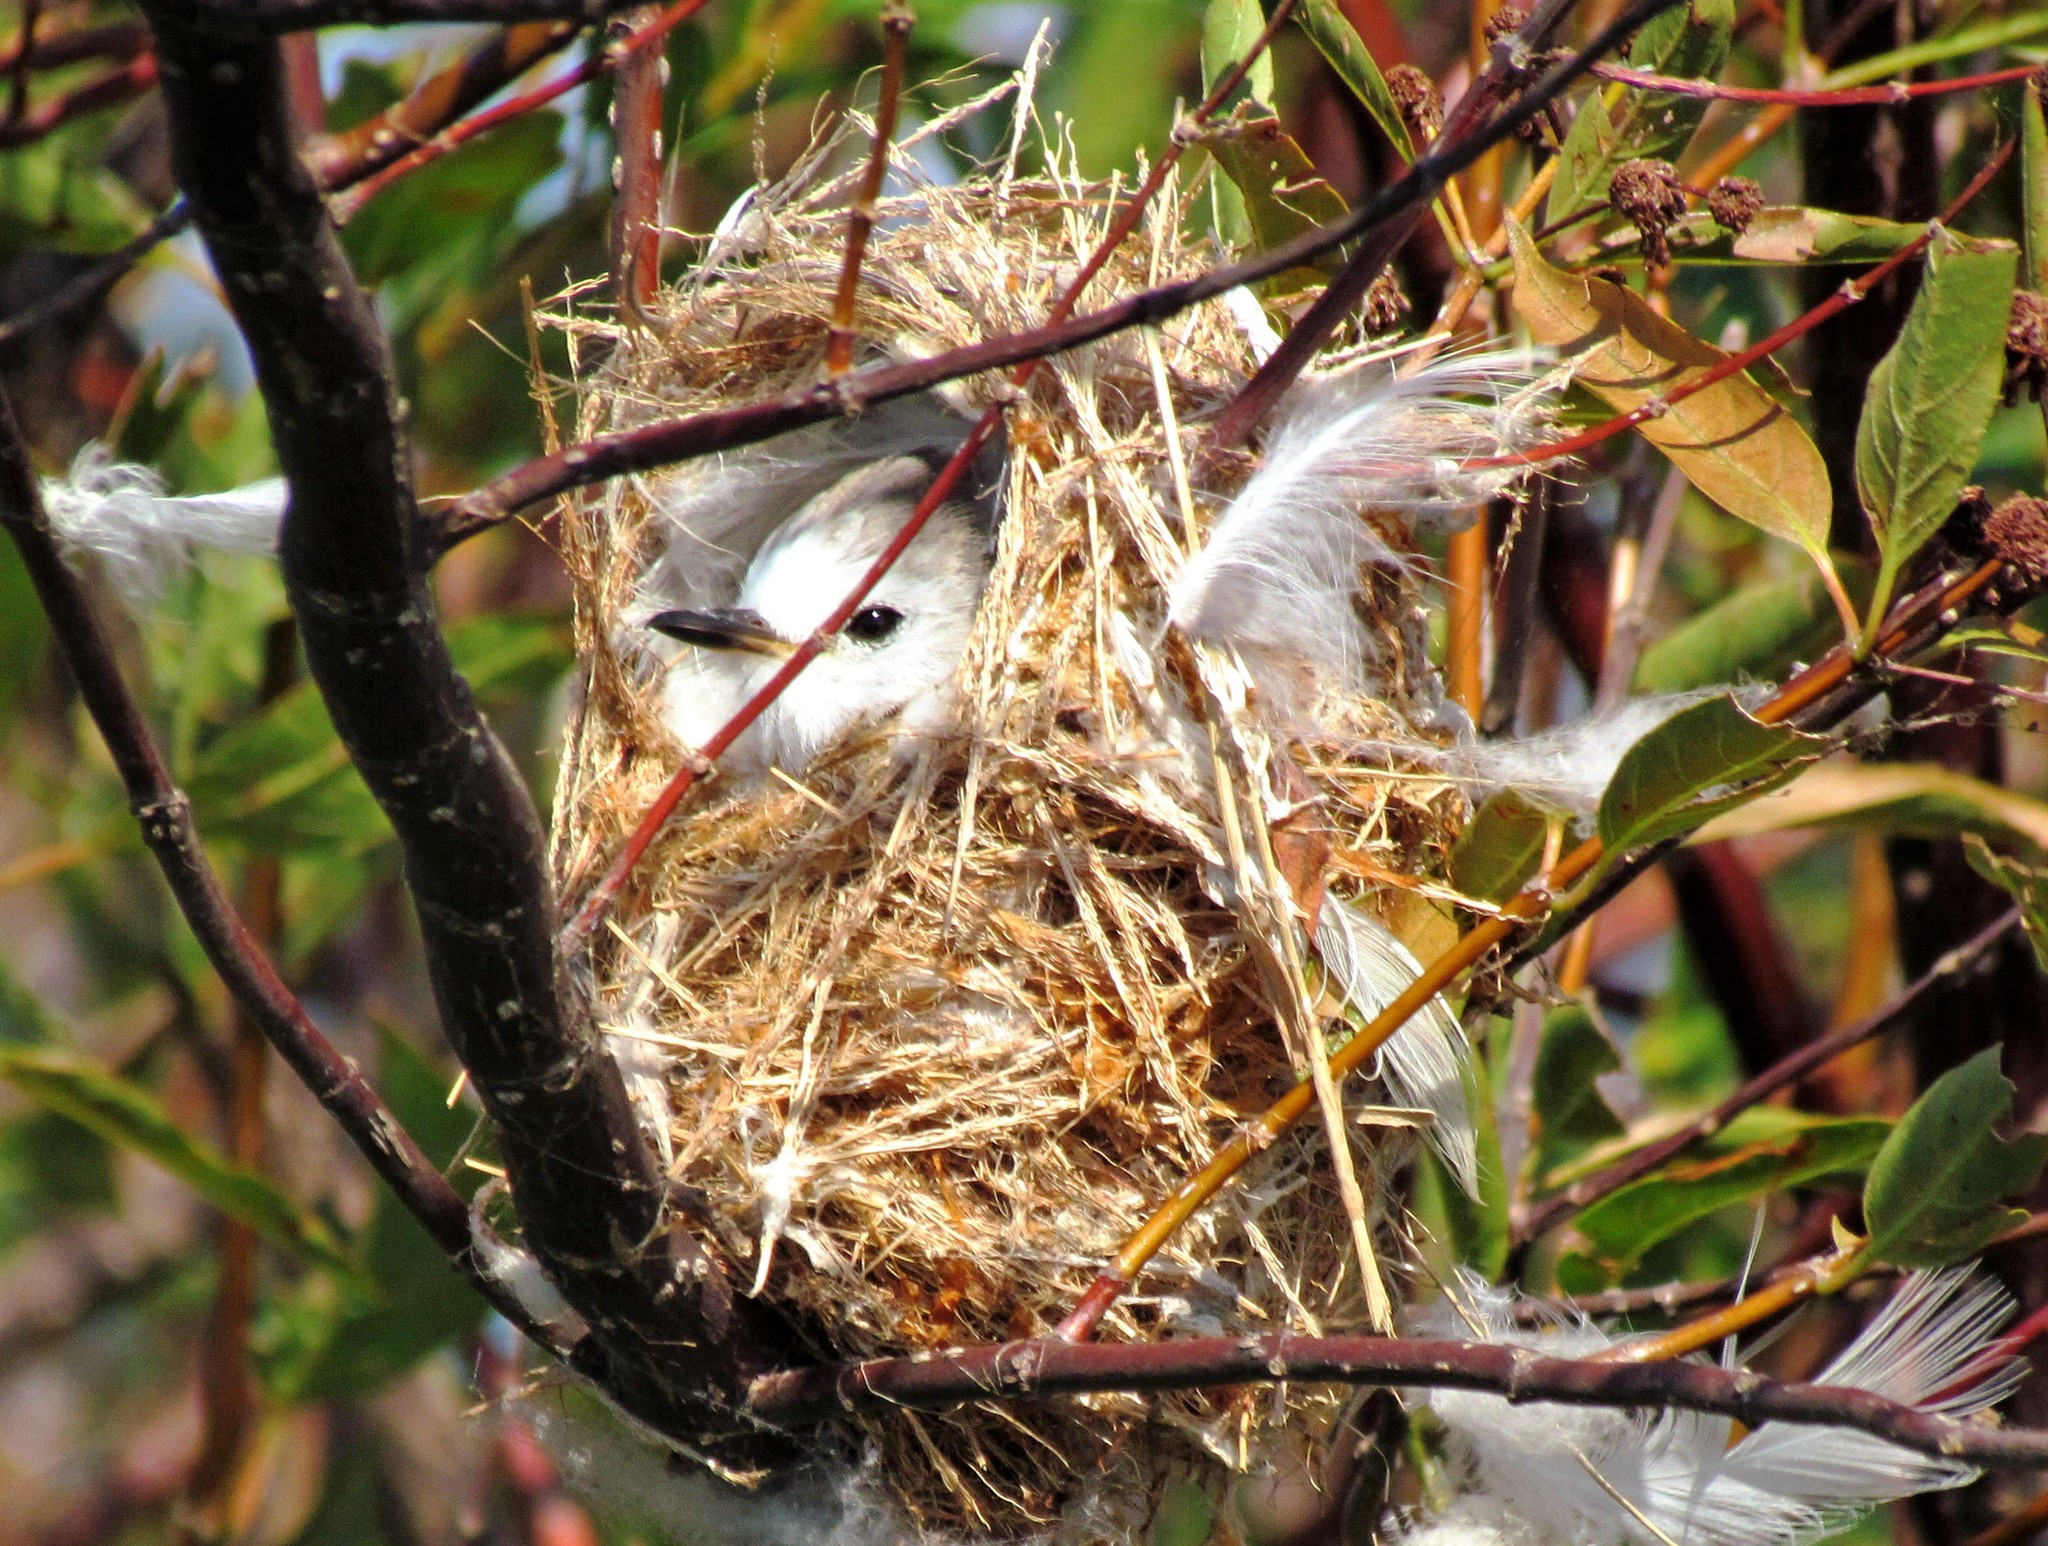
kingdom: Animalia
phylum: Chordata
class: Aves
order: Passeriformes
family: Tyrannidae
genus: Arundinicola
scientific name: Arundinicola leucocephala
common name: White-headed marsh tyrant
